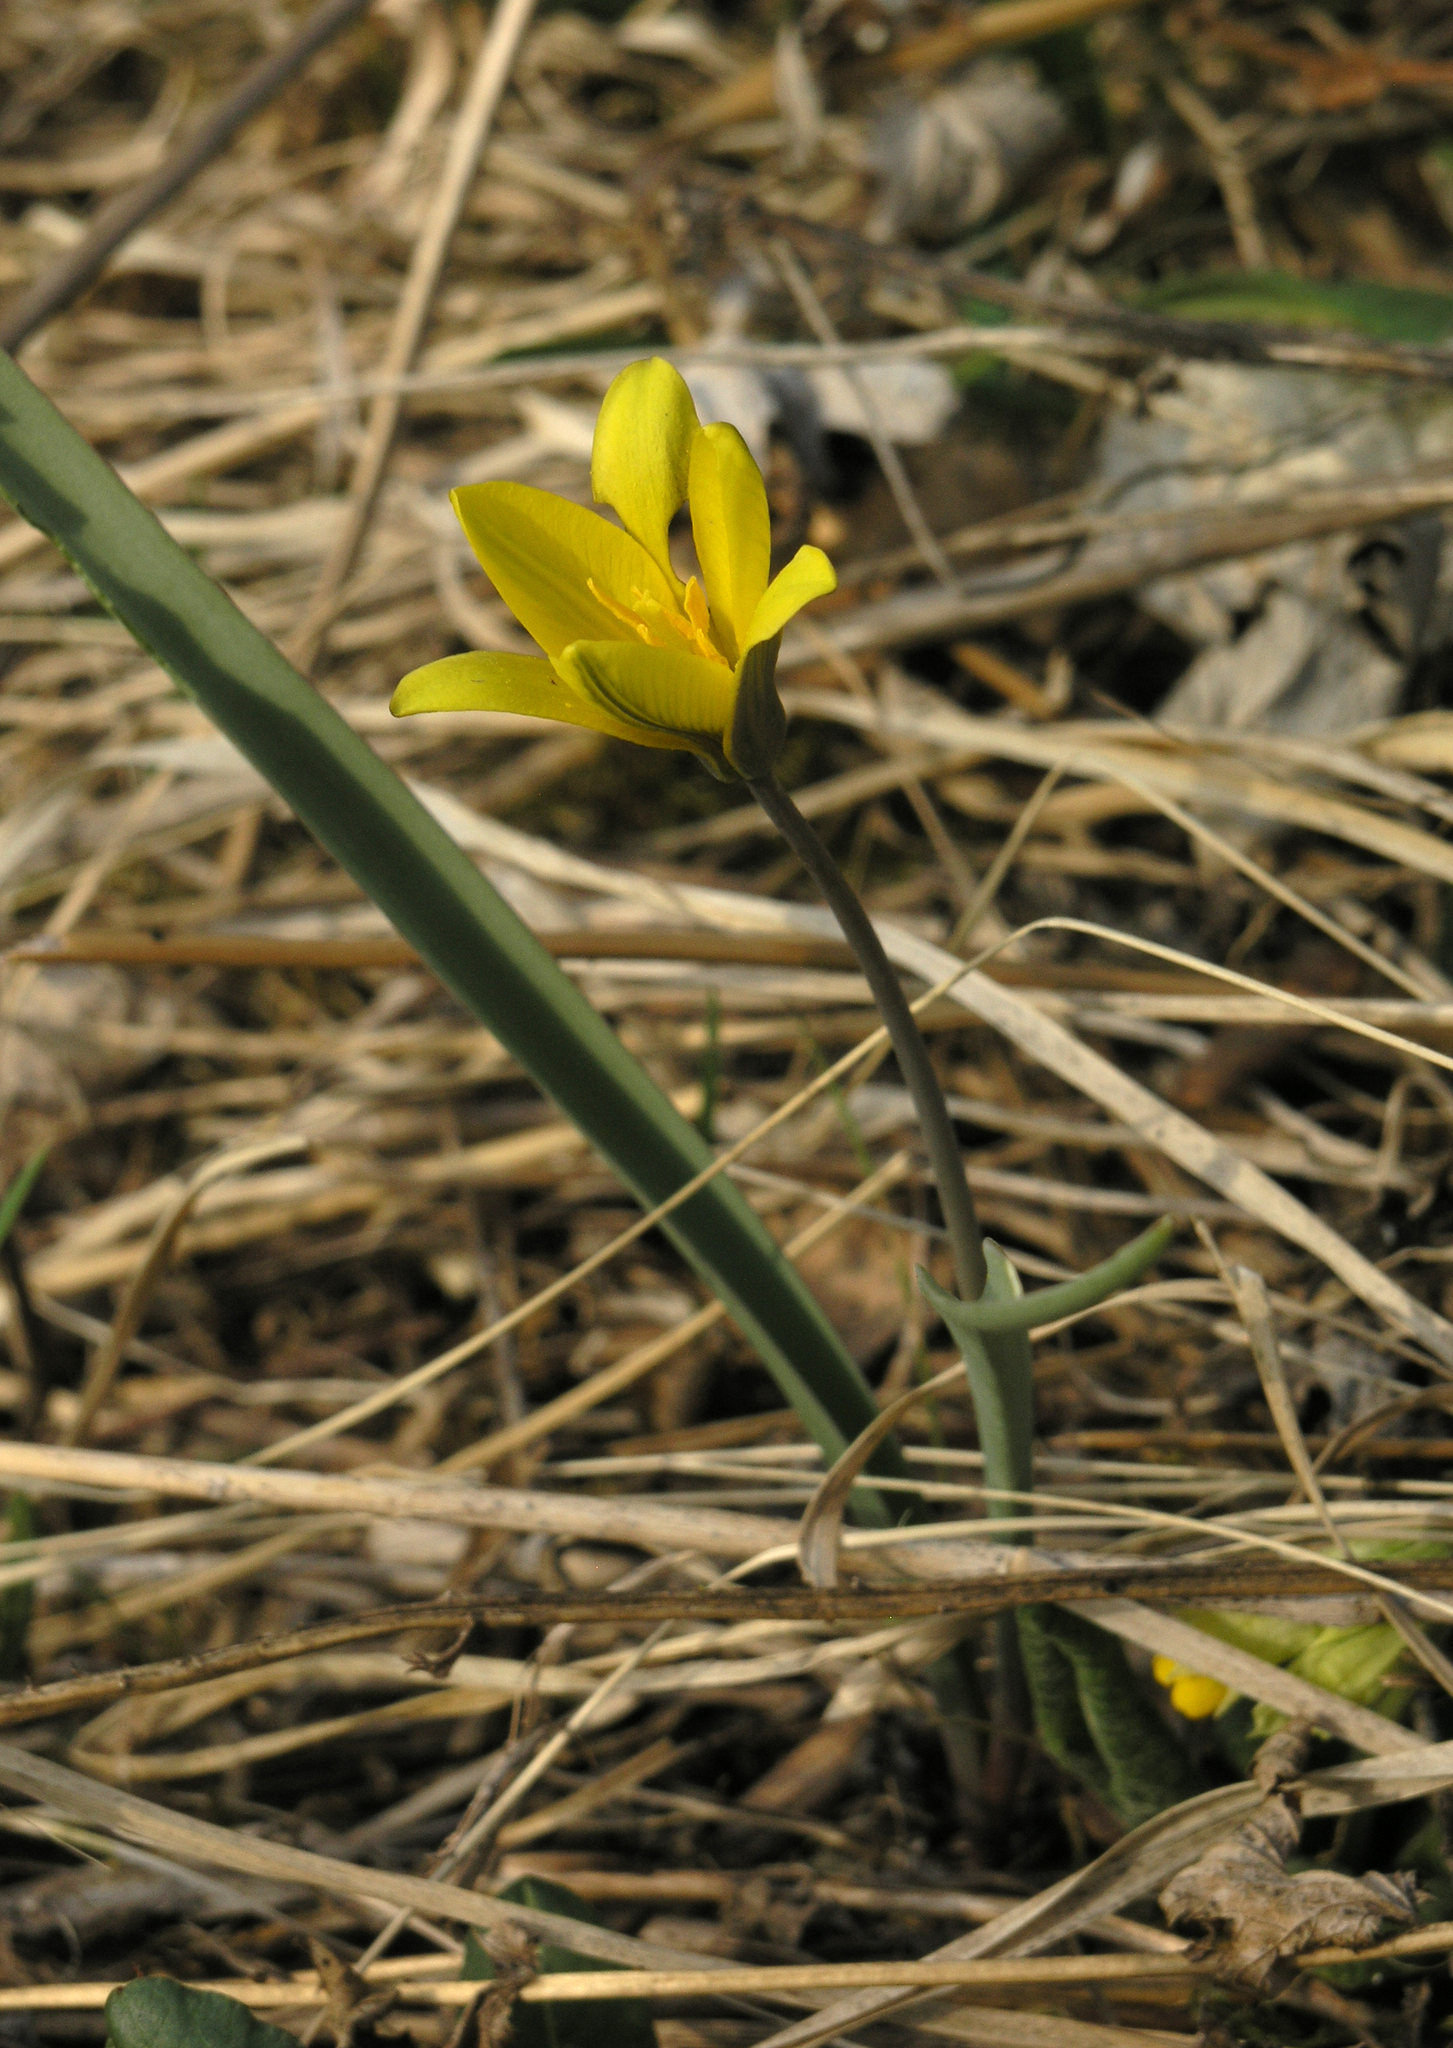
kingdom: Plantae
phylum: Tracheophyta
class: Liliopsida
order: Liliales
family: Liliaceae
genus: Tulipa
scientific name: Tulipa uniflora
